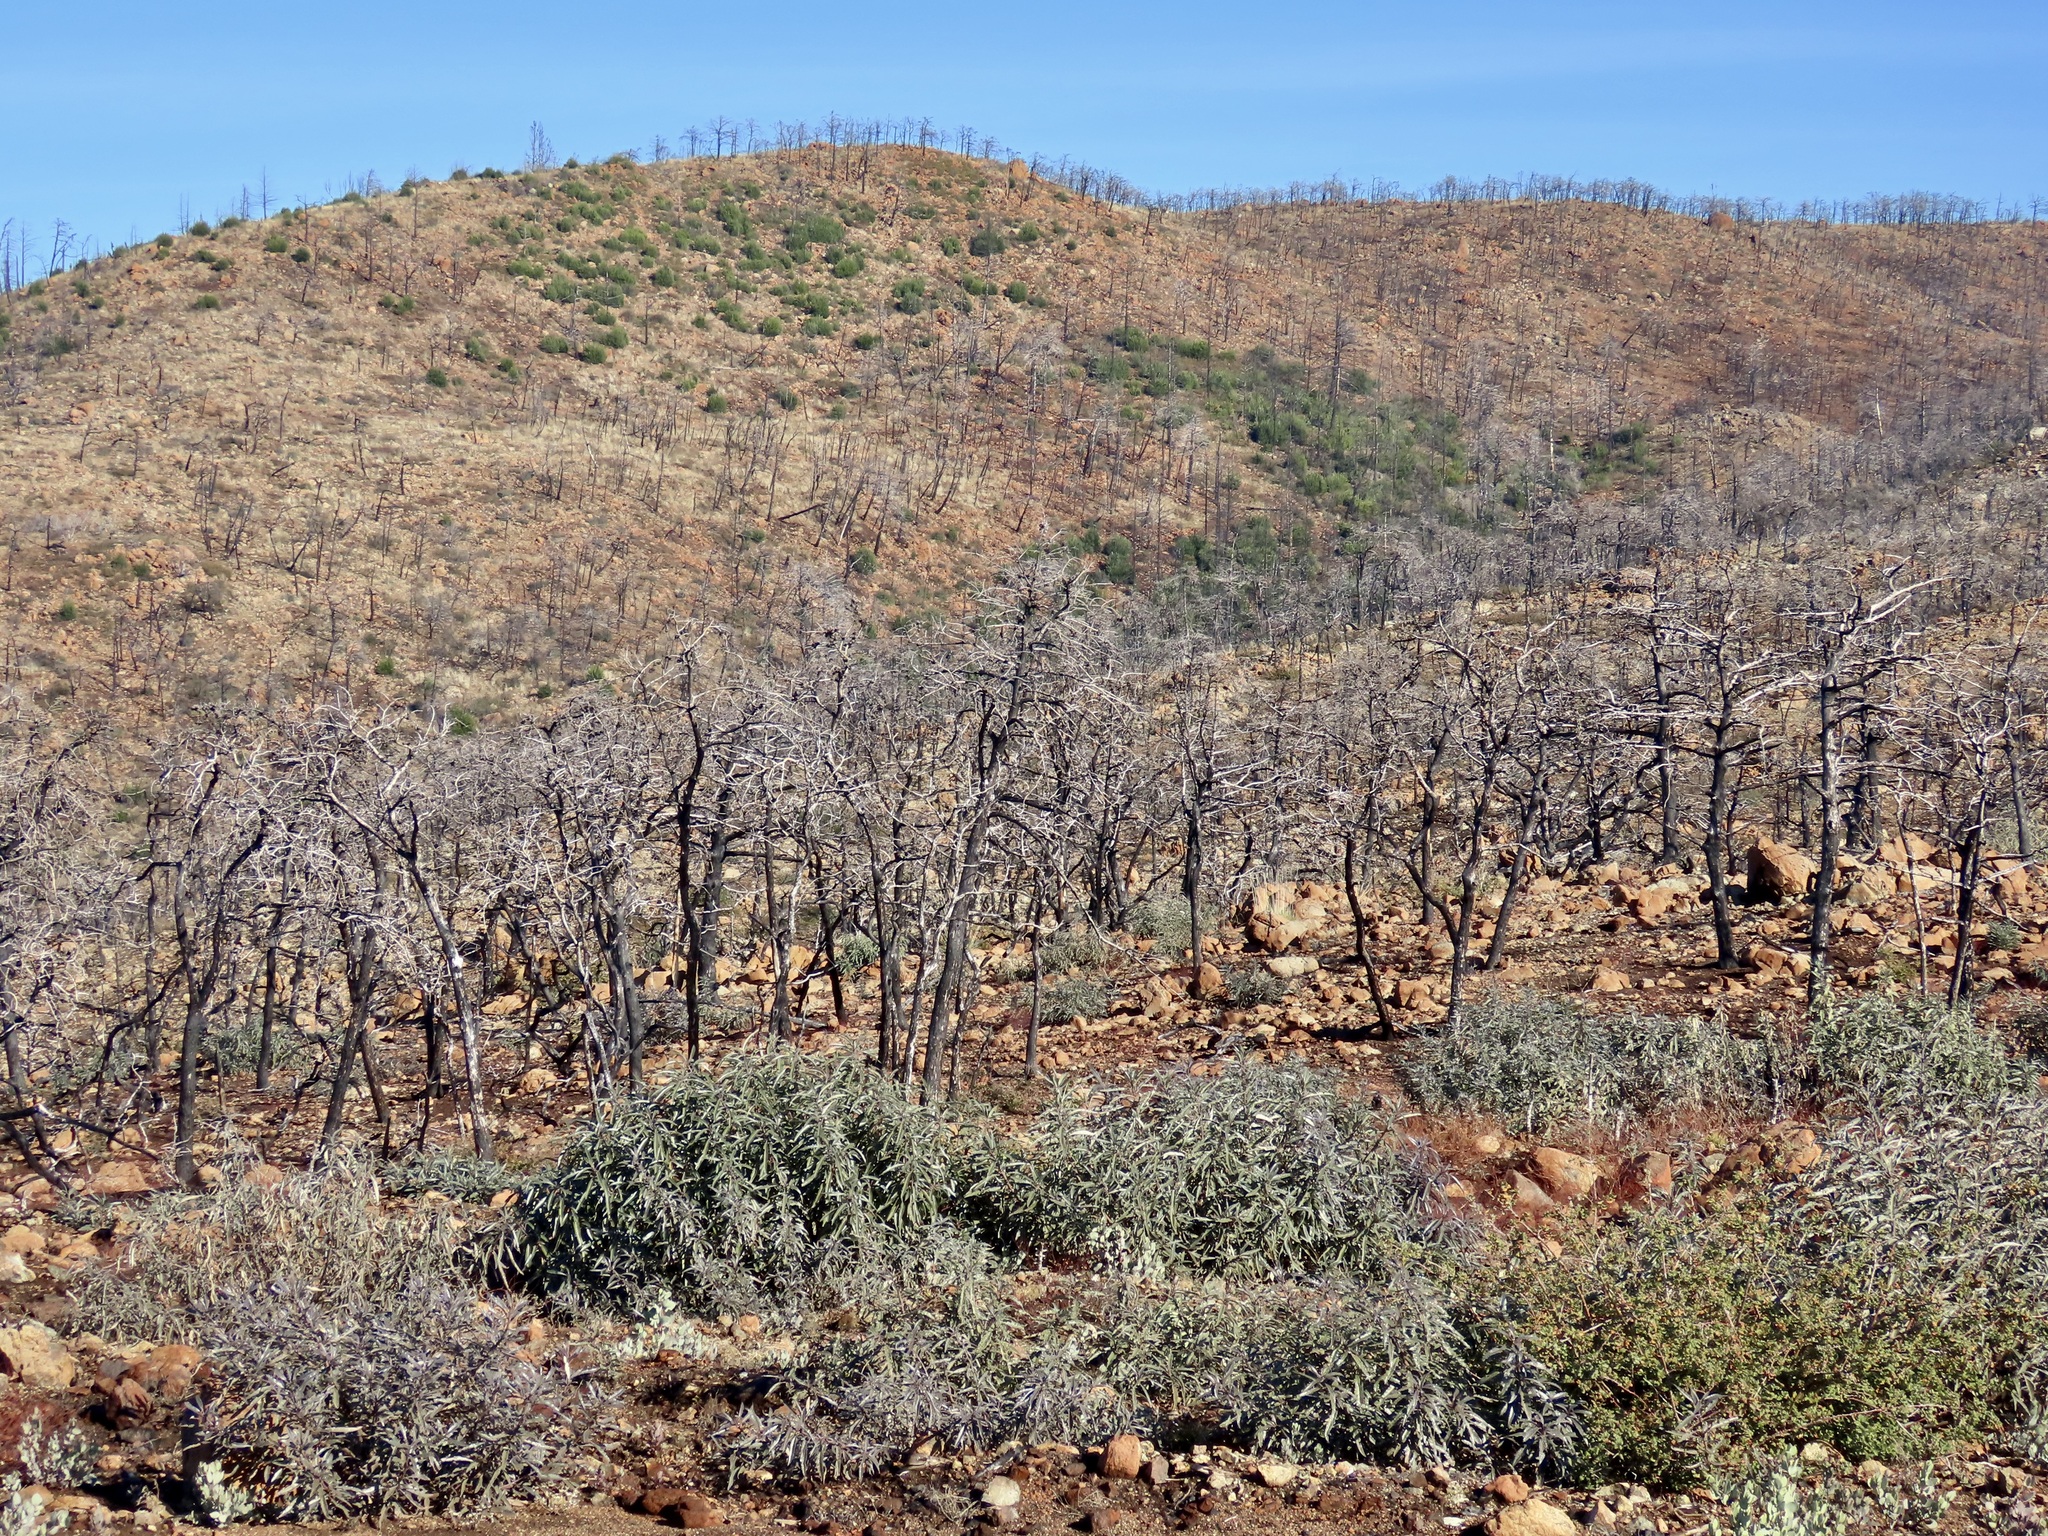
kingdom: Plantae
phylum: Tracheophyta
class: Pinopsida
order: Pinales
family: Cupressaceae
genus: Cupressus
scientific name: Cupressus sargentii
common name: Sargent cypress
